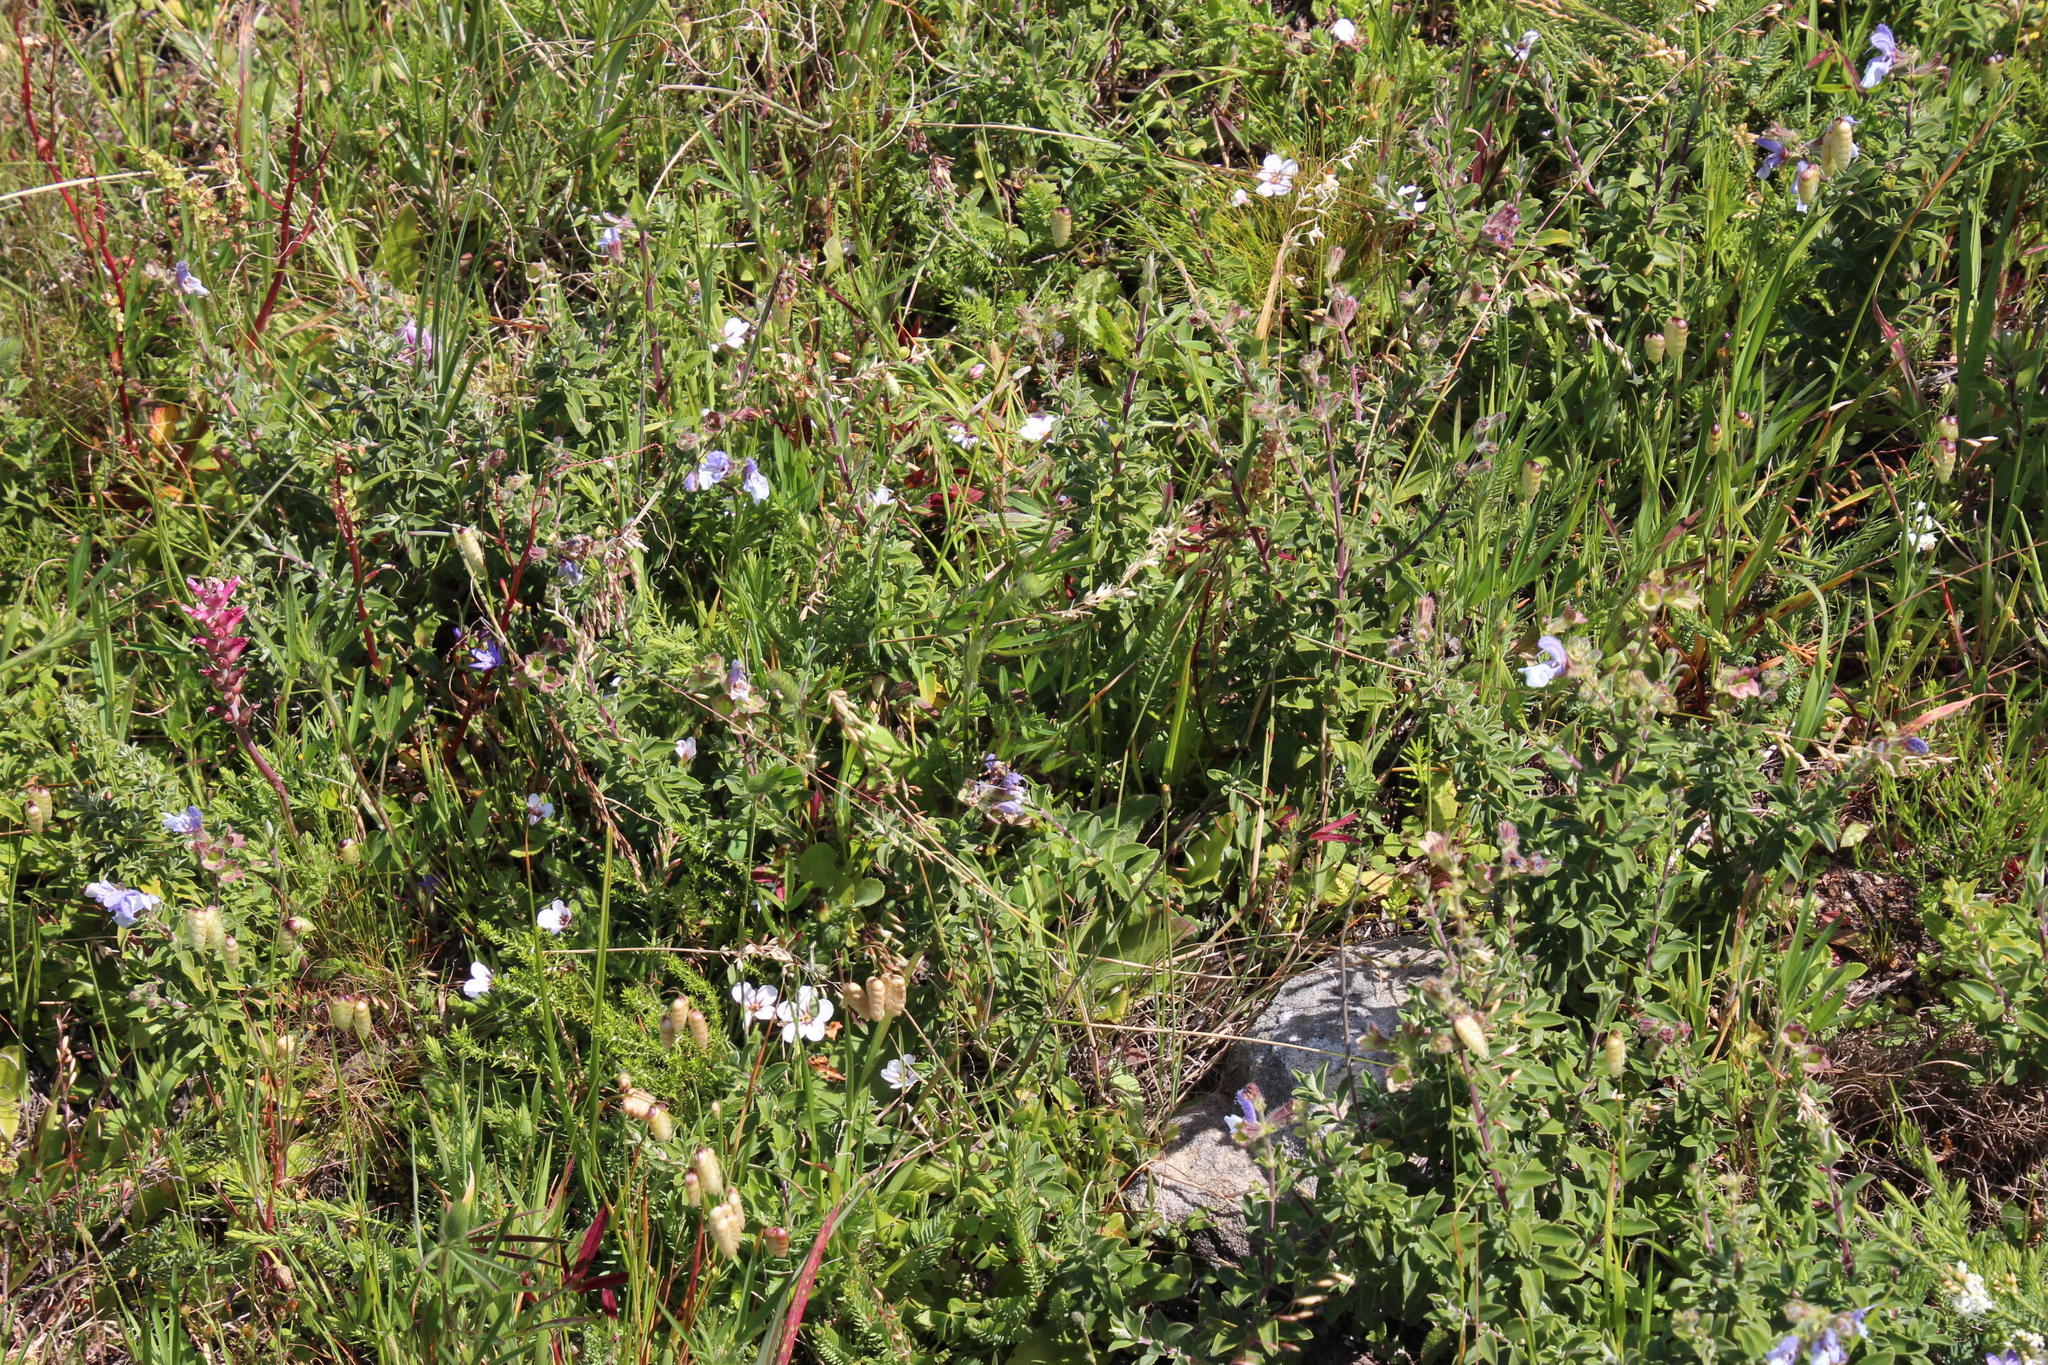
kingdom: Plantae
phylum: Tracheophyta
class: Magnoliopsida
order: Lamiales
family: Lamiaceae
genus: Salvia
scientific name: Salvia africana
